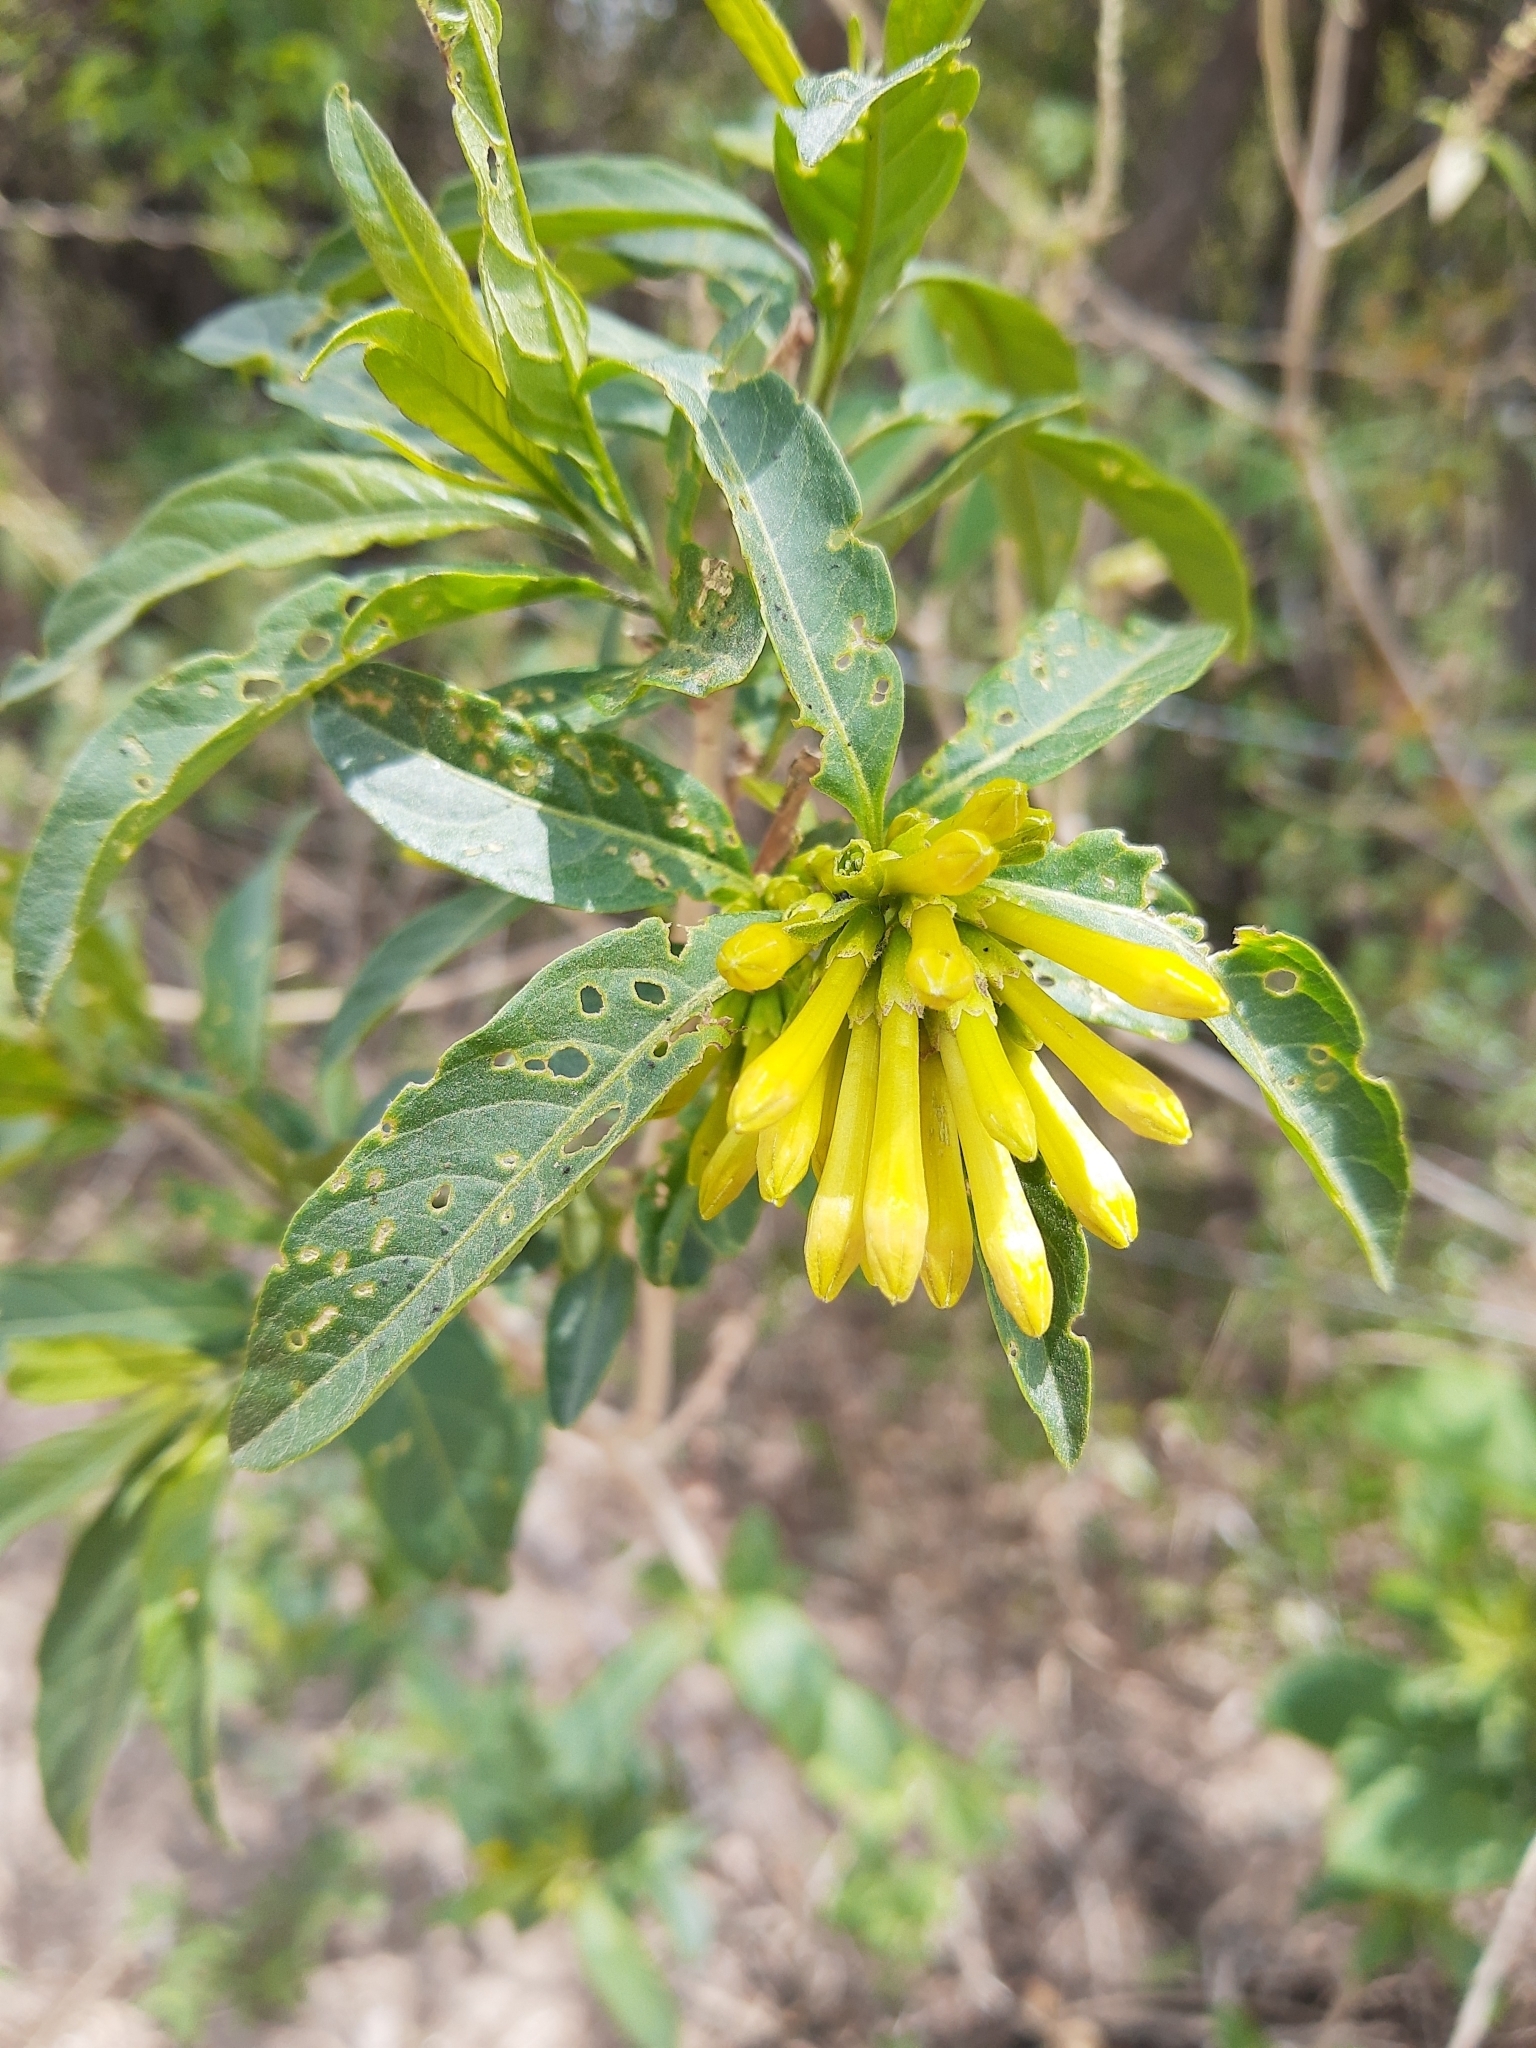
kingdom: Plantae
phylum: Tracheophyta
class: Magnoliopsida
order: Solanales
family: Solanaceae
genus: Cestrum
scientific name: Cestrum parqui
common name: Chilean cestrum
